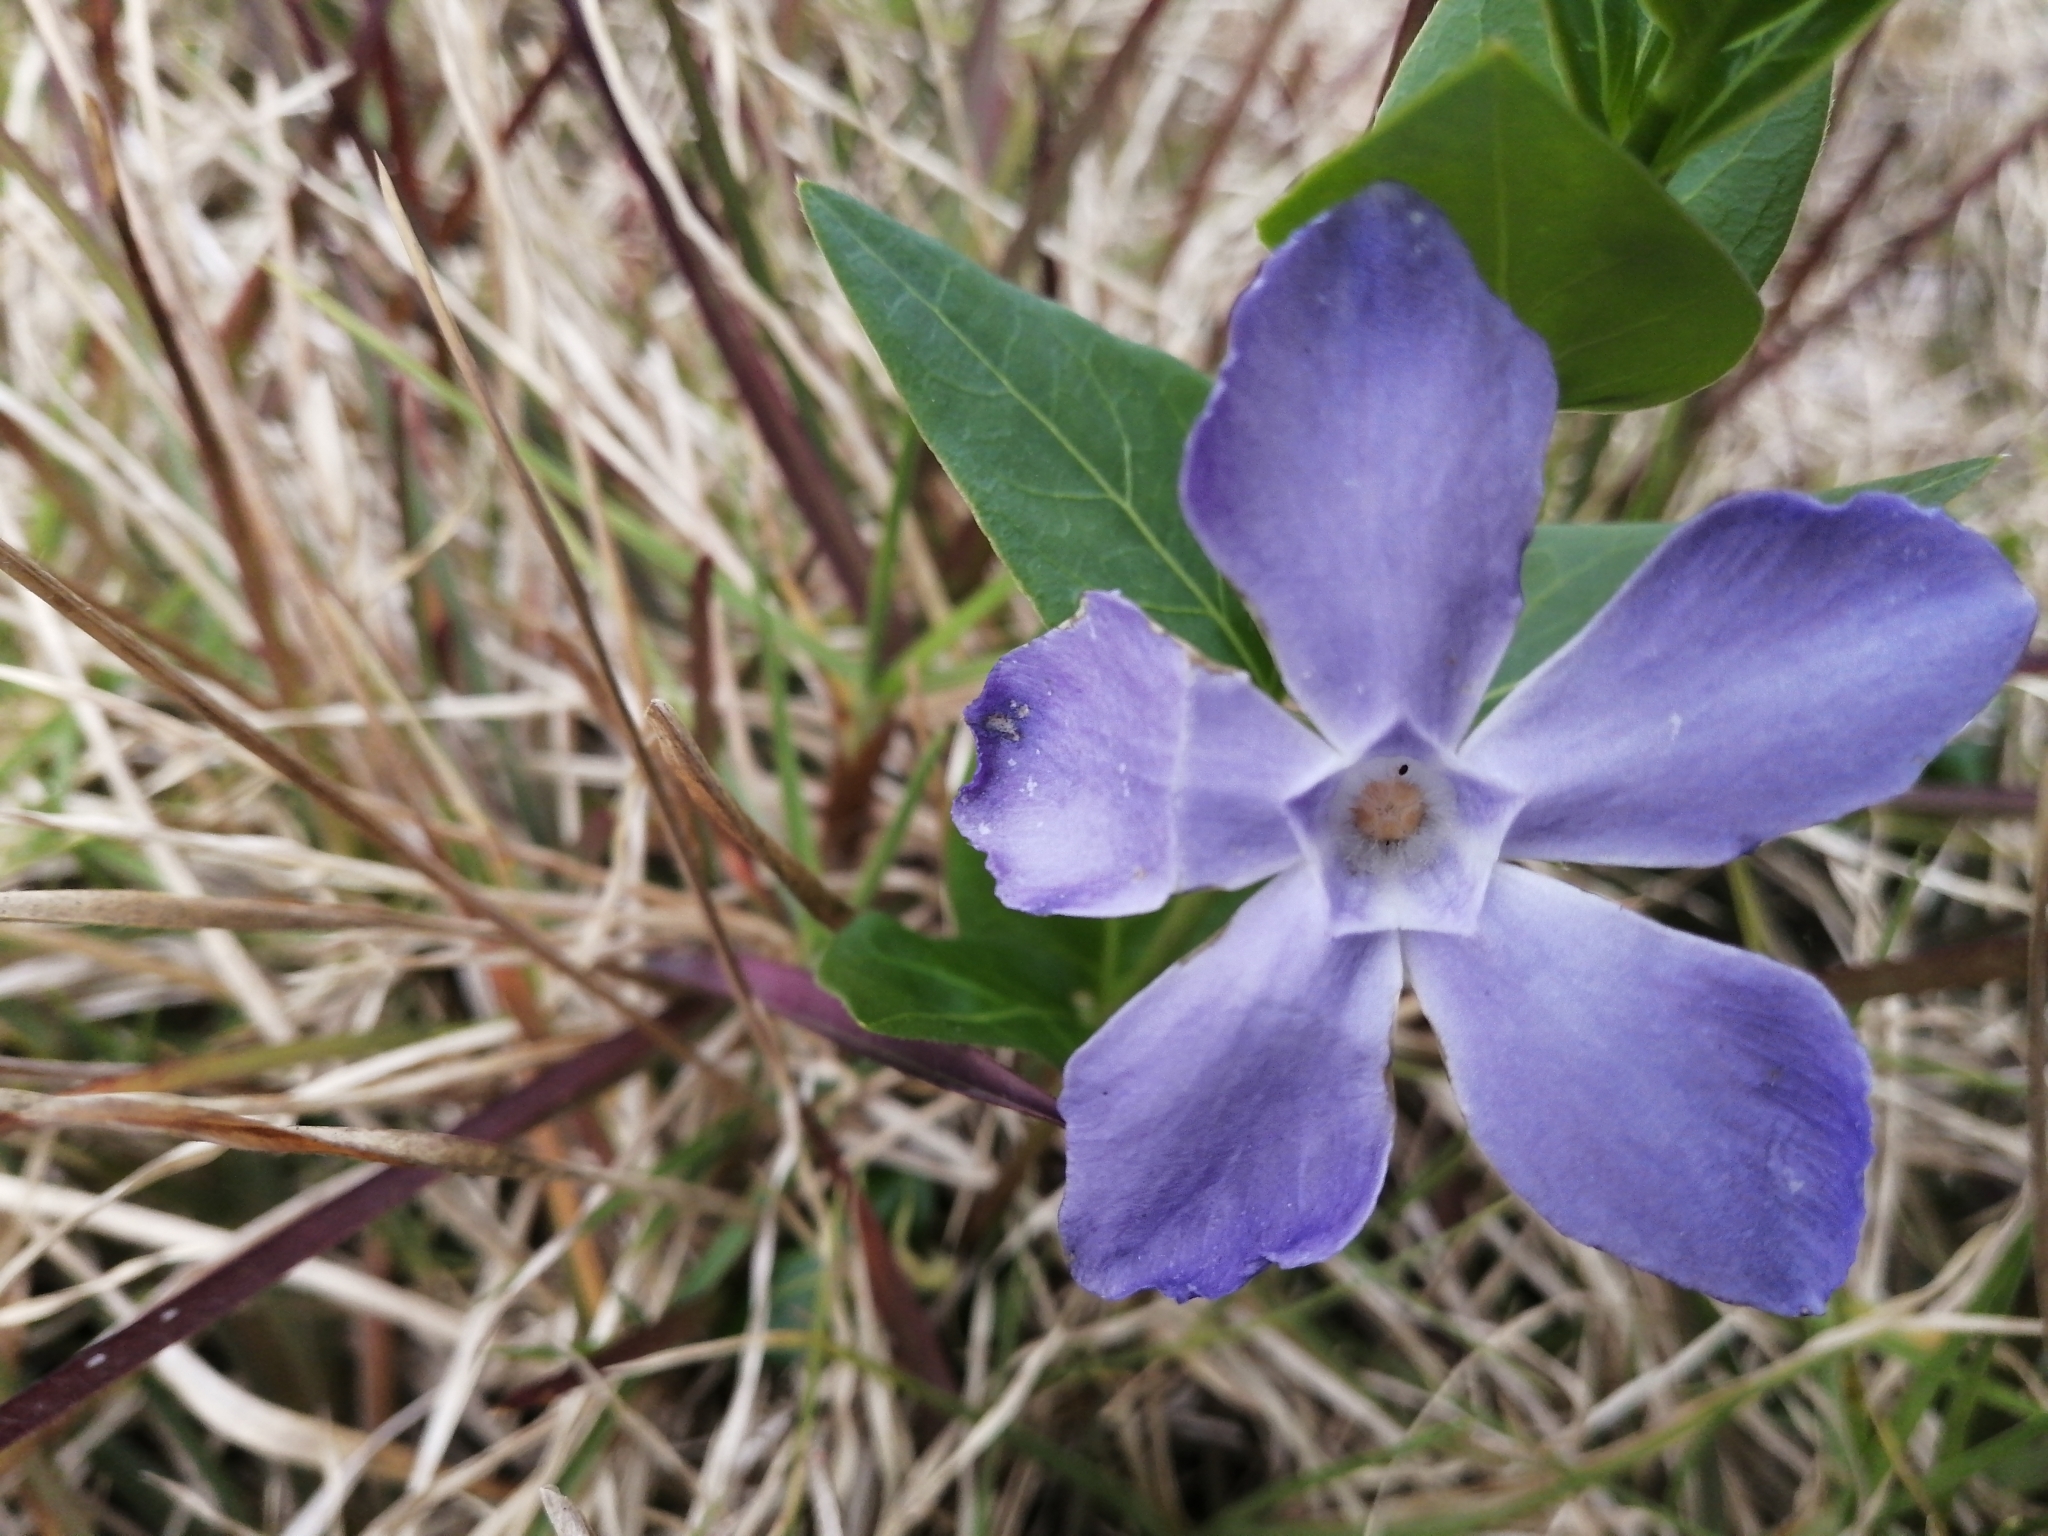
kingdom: Plantae
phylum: Tracheophyta
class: Magnoliopsida
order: Gentianales
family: Apocynaceae
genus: Vinca
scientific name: Vinca major
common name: Greater periwinkle
